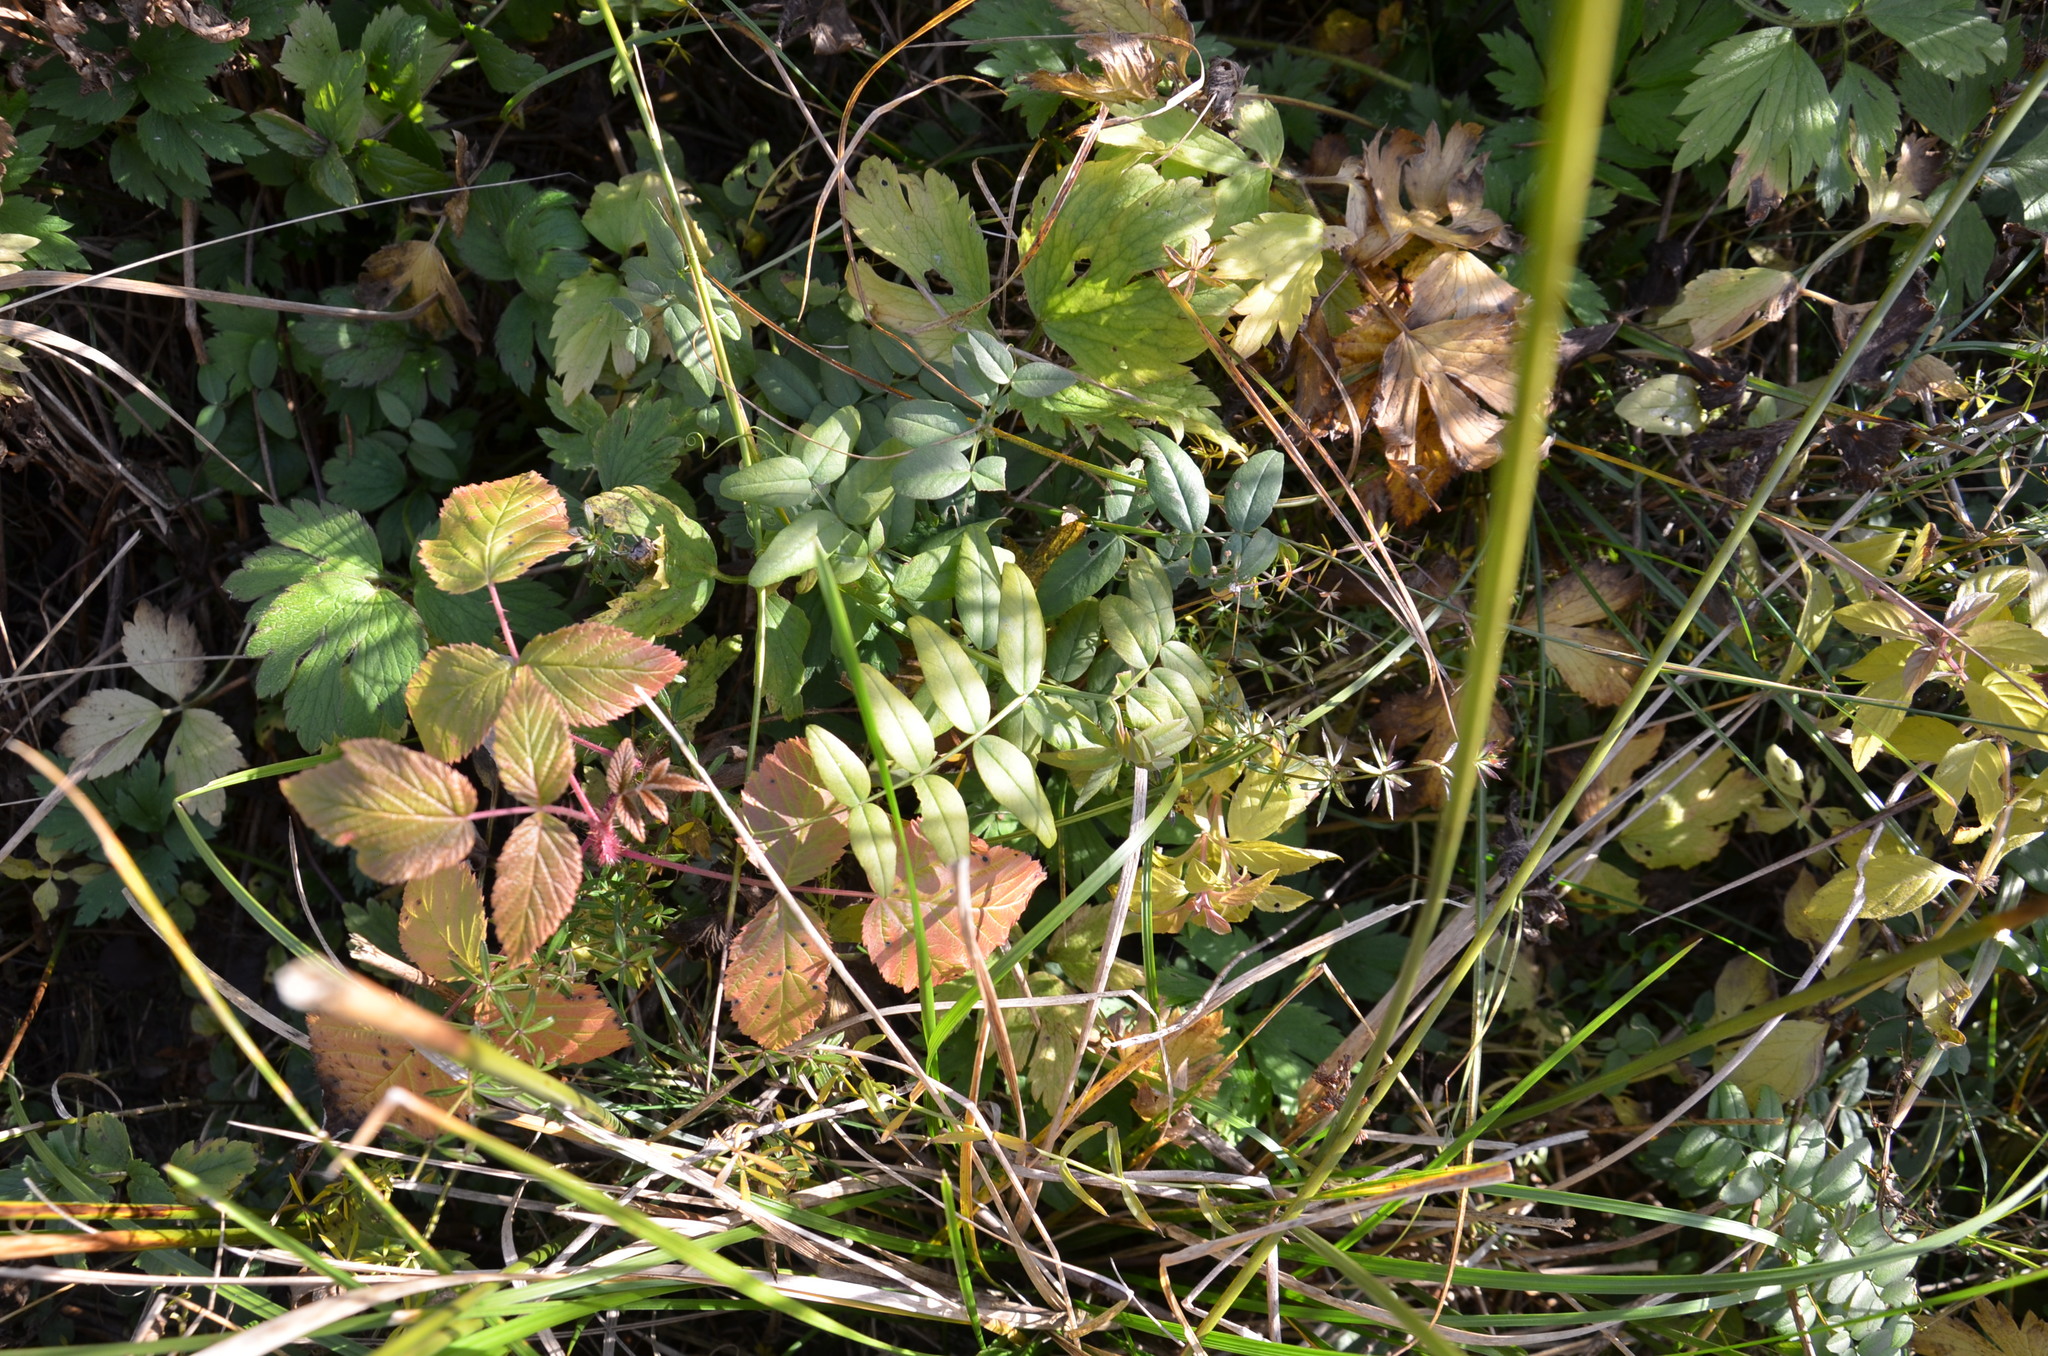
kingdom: Plantae
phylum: Tracheophyta
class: Magnoliopsida
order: Fabales
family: Fabaceae
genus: Vicia
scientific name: Vicia sepium
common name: Bush vetch
